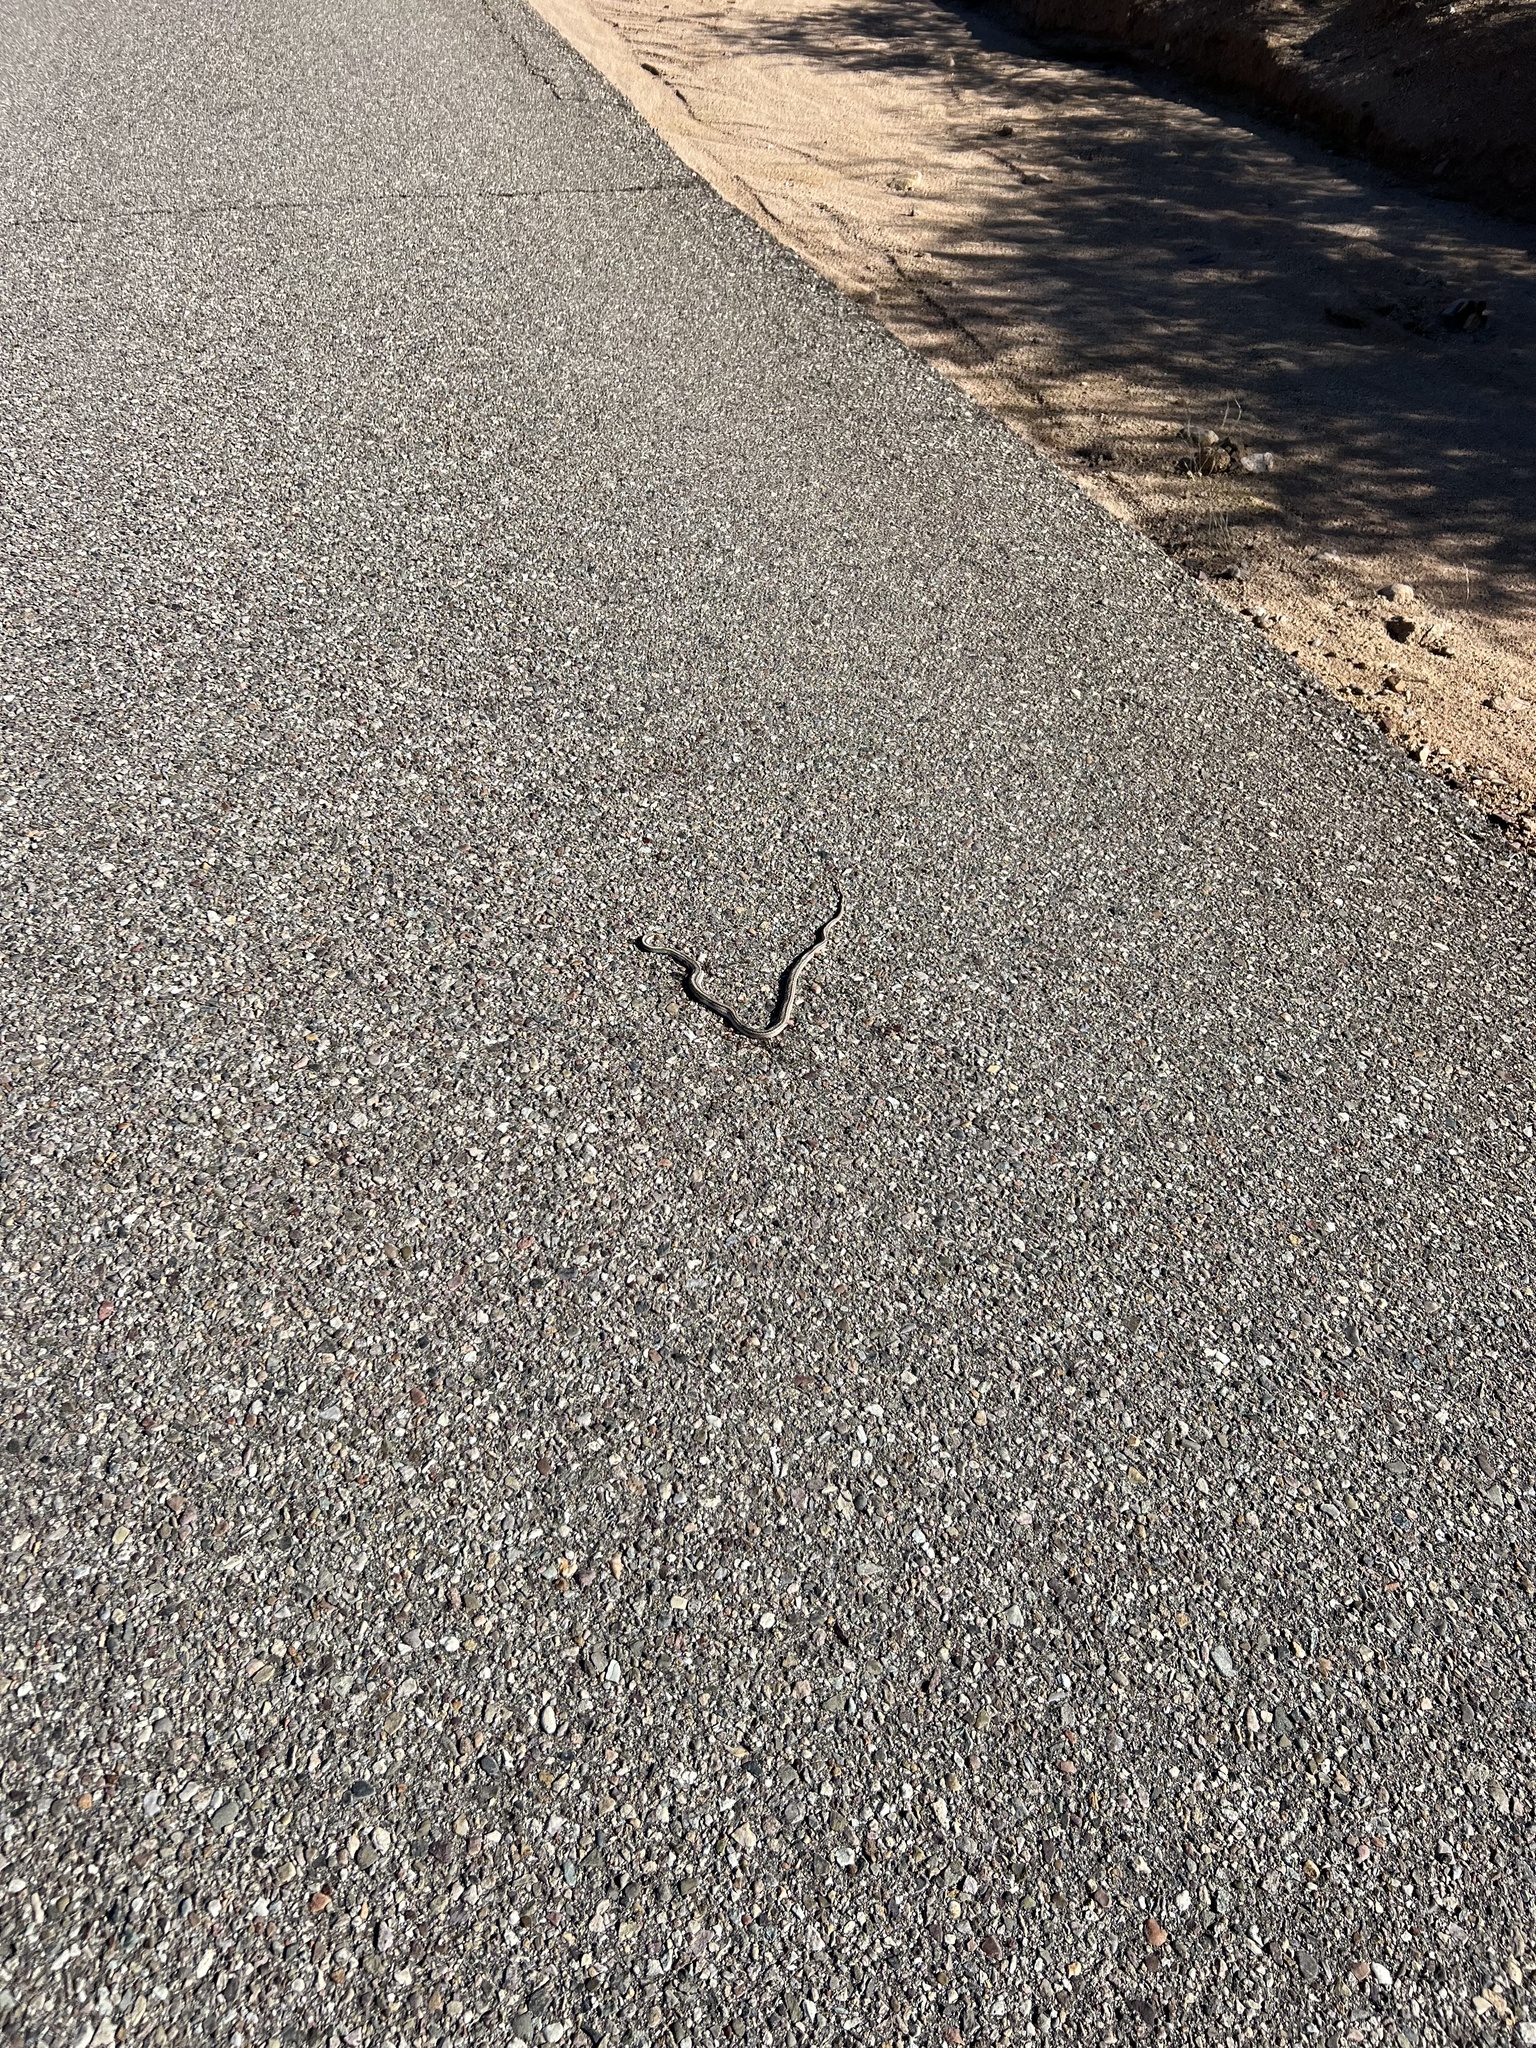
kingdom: Animalia
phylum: Chordata
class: Squamata
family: Colubridae
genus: Salvadora
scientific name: Salvadora deserticola
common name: Big bend patchnose snake
